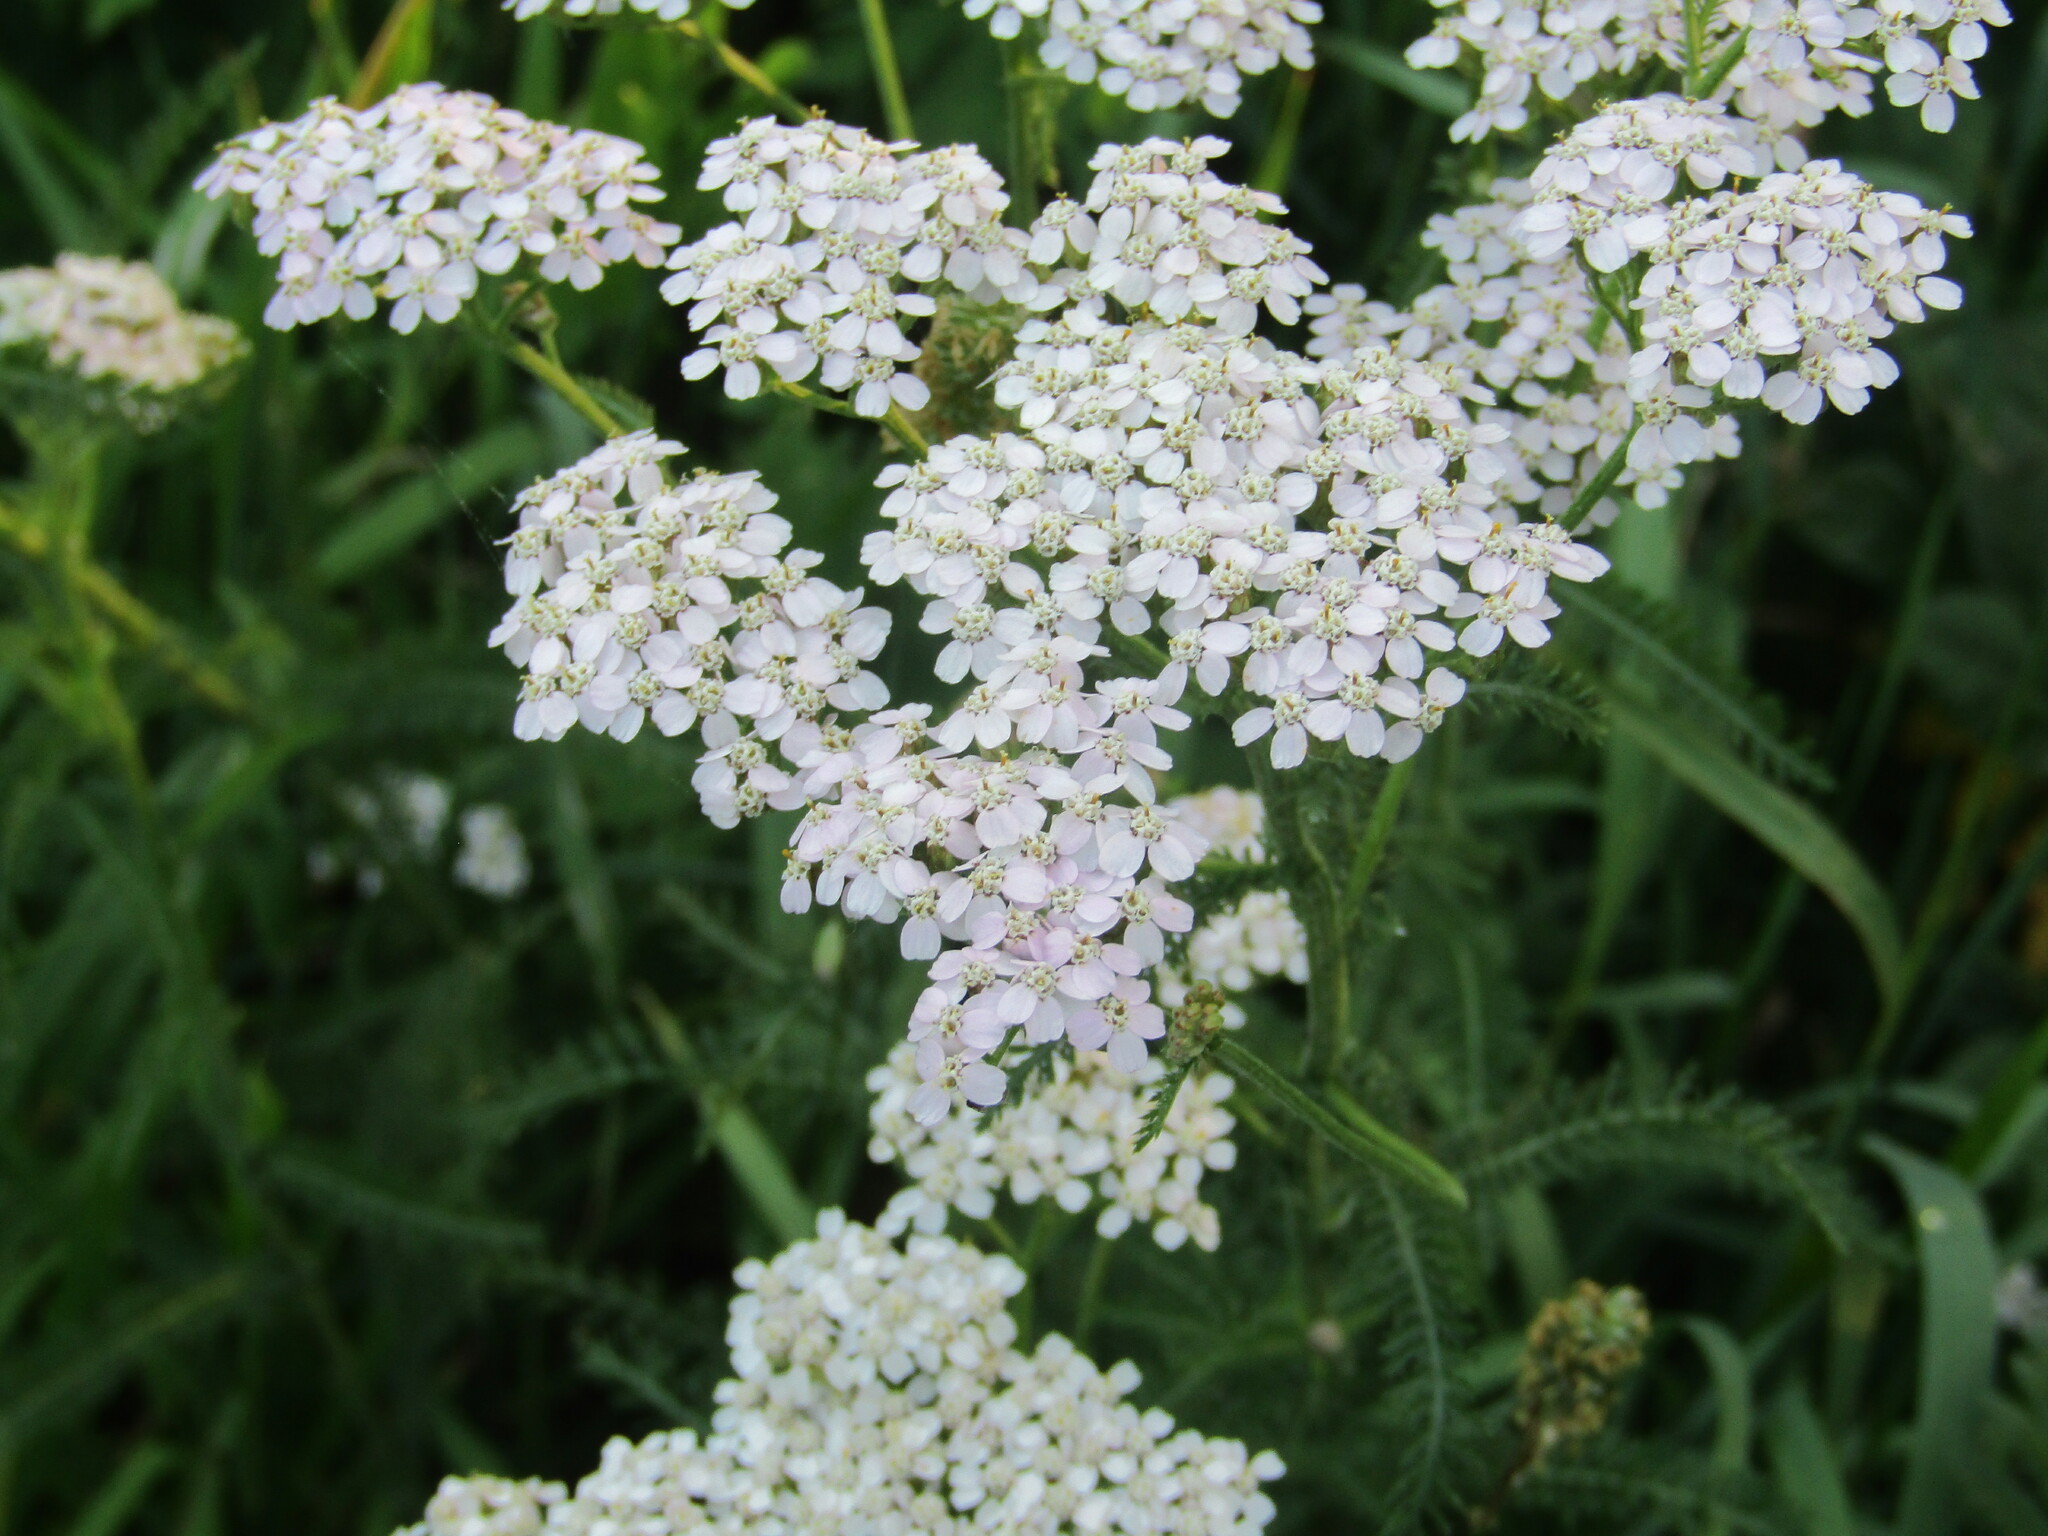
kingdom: Plantae
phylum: Tracheophyta
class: Magnoliopsida
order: Asterales
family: Asteraceae
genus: Achillea
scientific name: Achillea millefolium
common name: Yarrow
